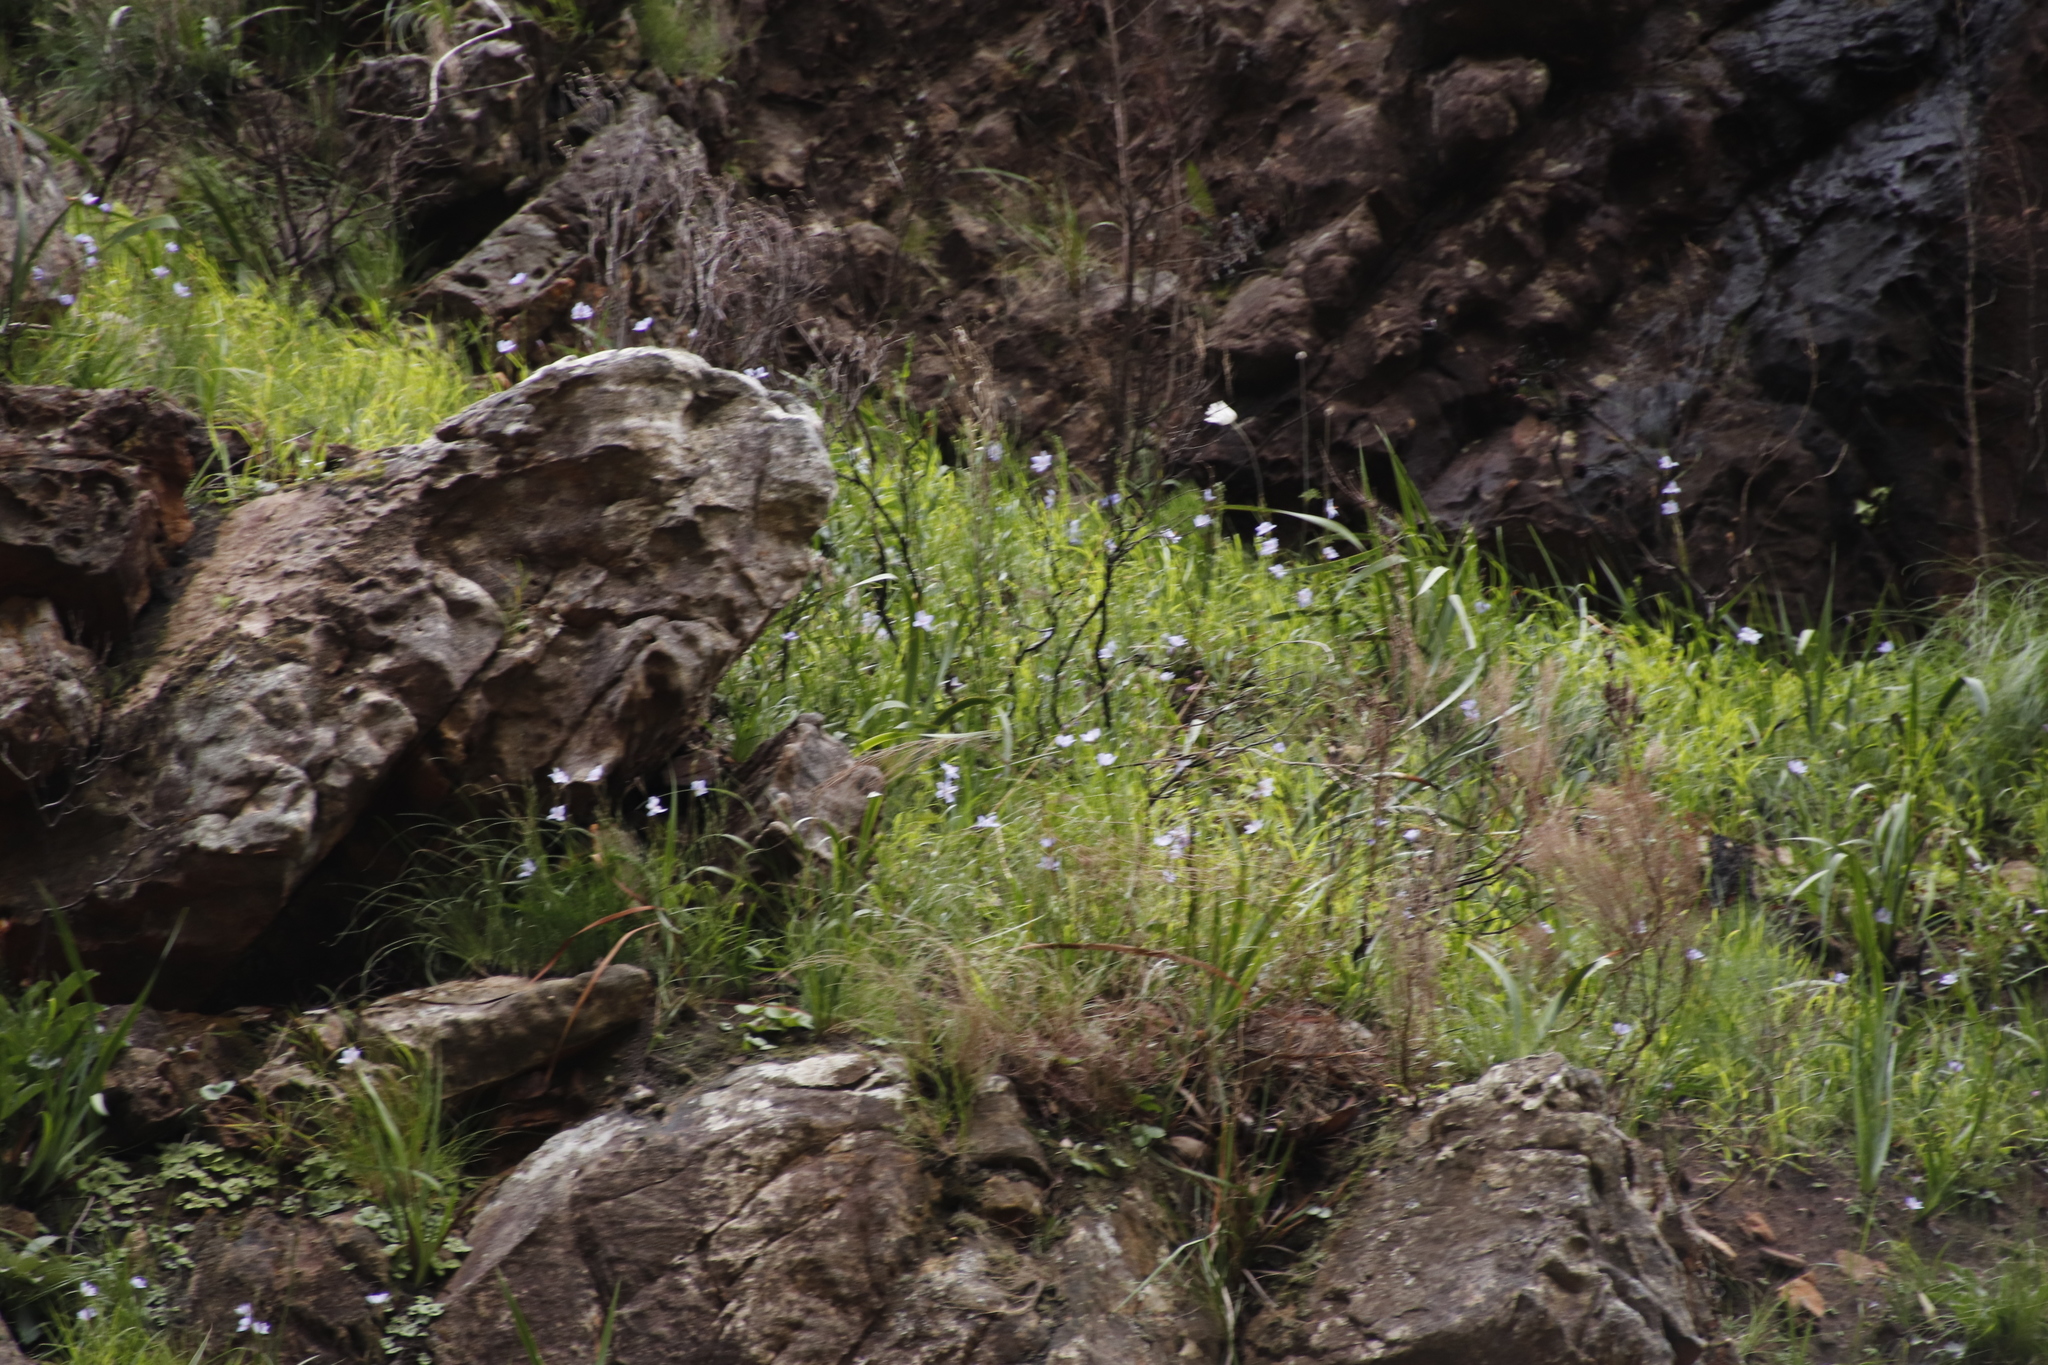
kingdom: Plantae
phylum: Tracheophyta
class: Liliopsida
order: Asparagales
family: Iridaceae
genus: Aristea
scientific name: Aristea spiralis
